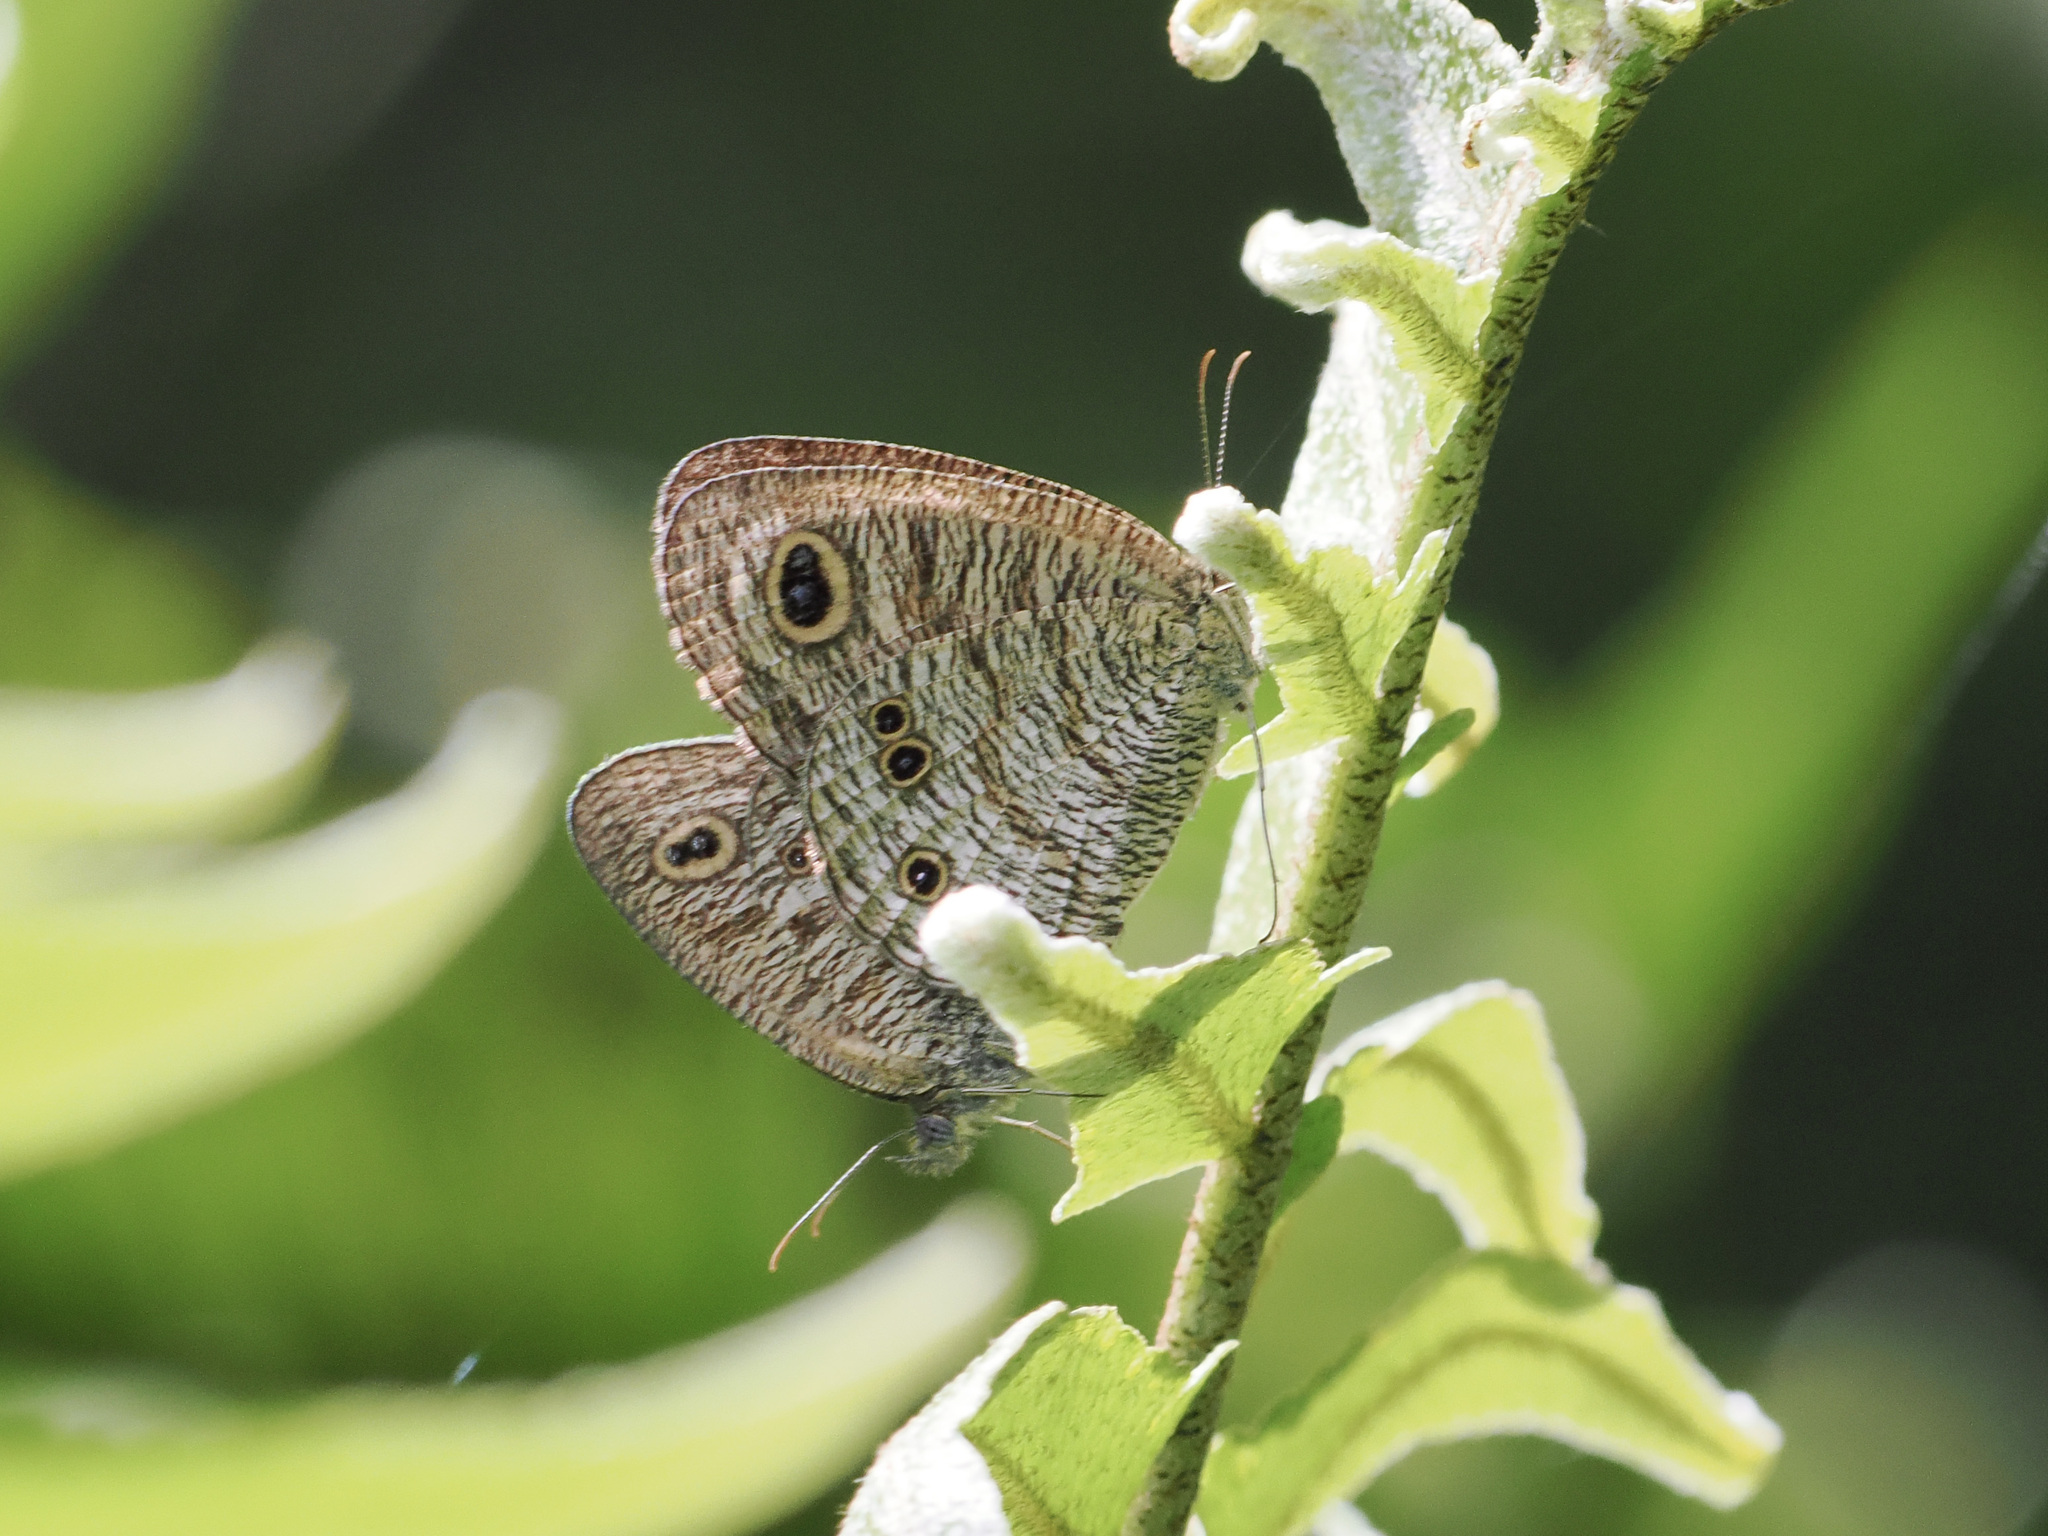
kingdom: Animalia
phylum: Arthropoda
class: Insecta
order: Lepidoptera
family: Nymphalidae
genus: Ypthima
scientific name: Ypthima nigricans
